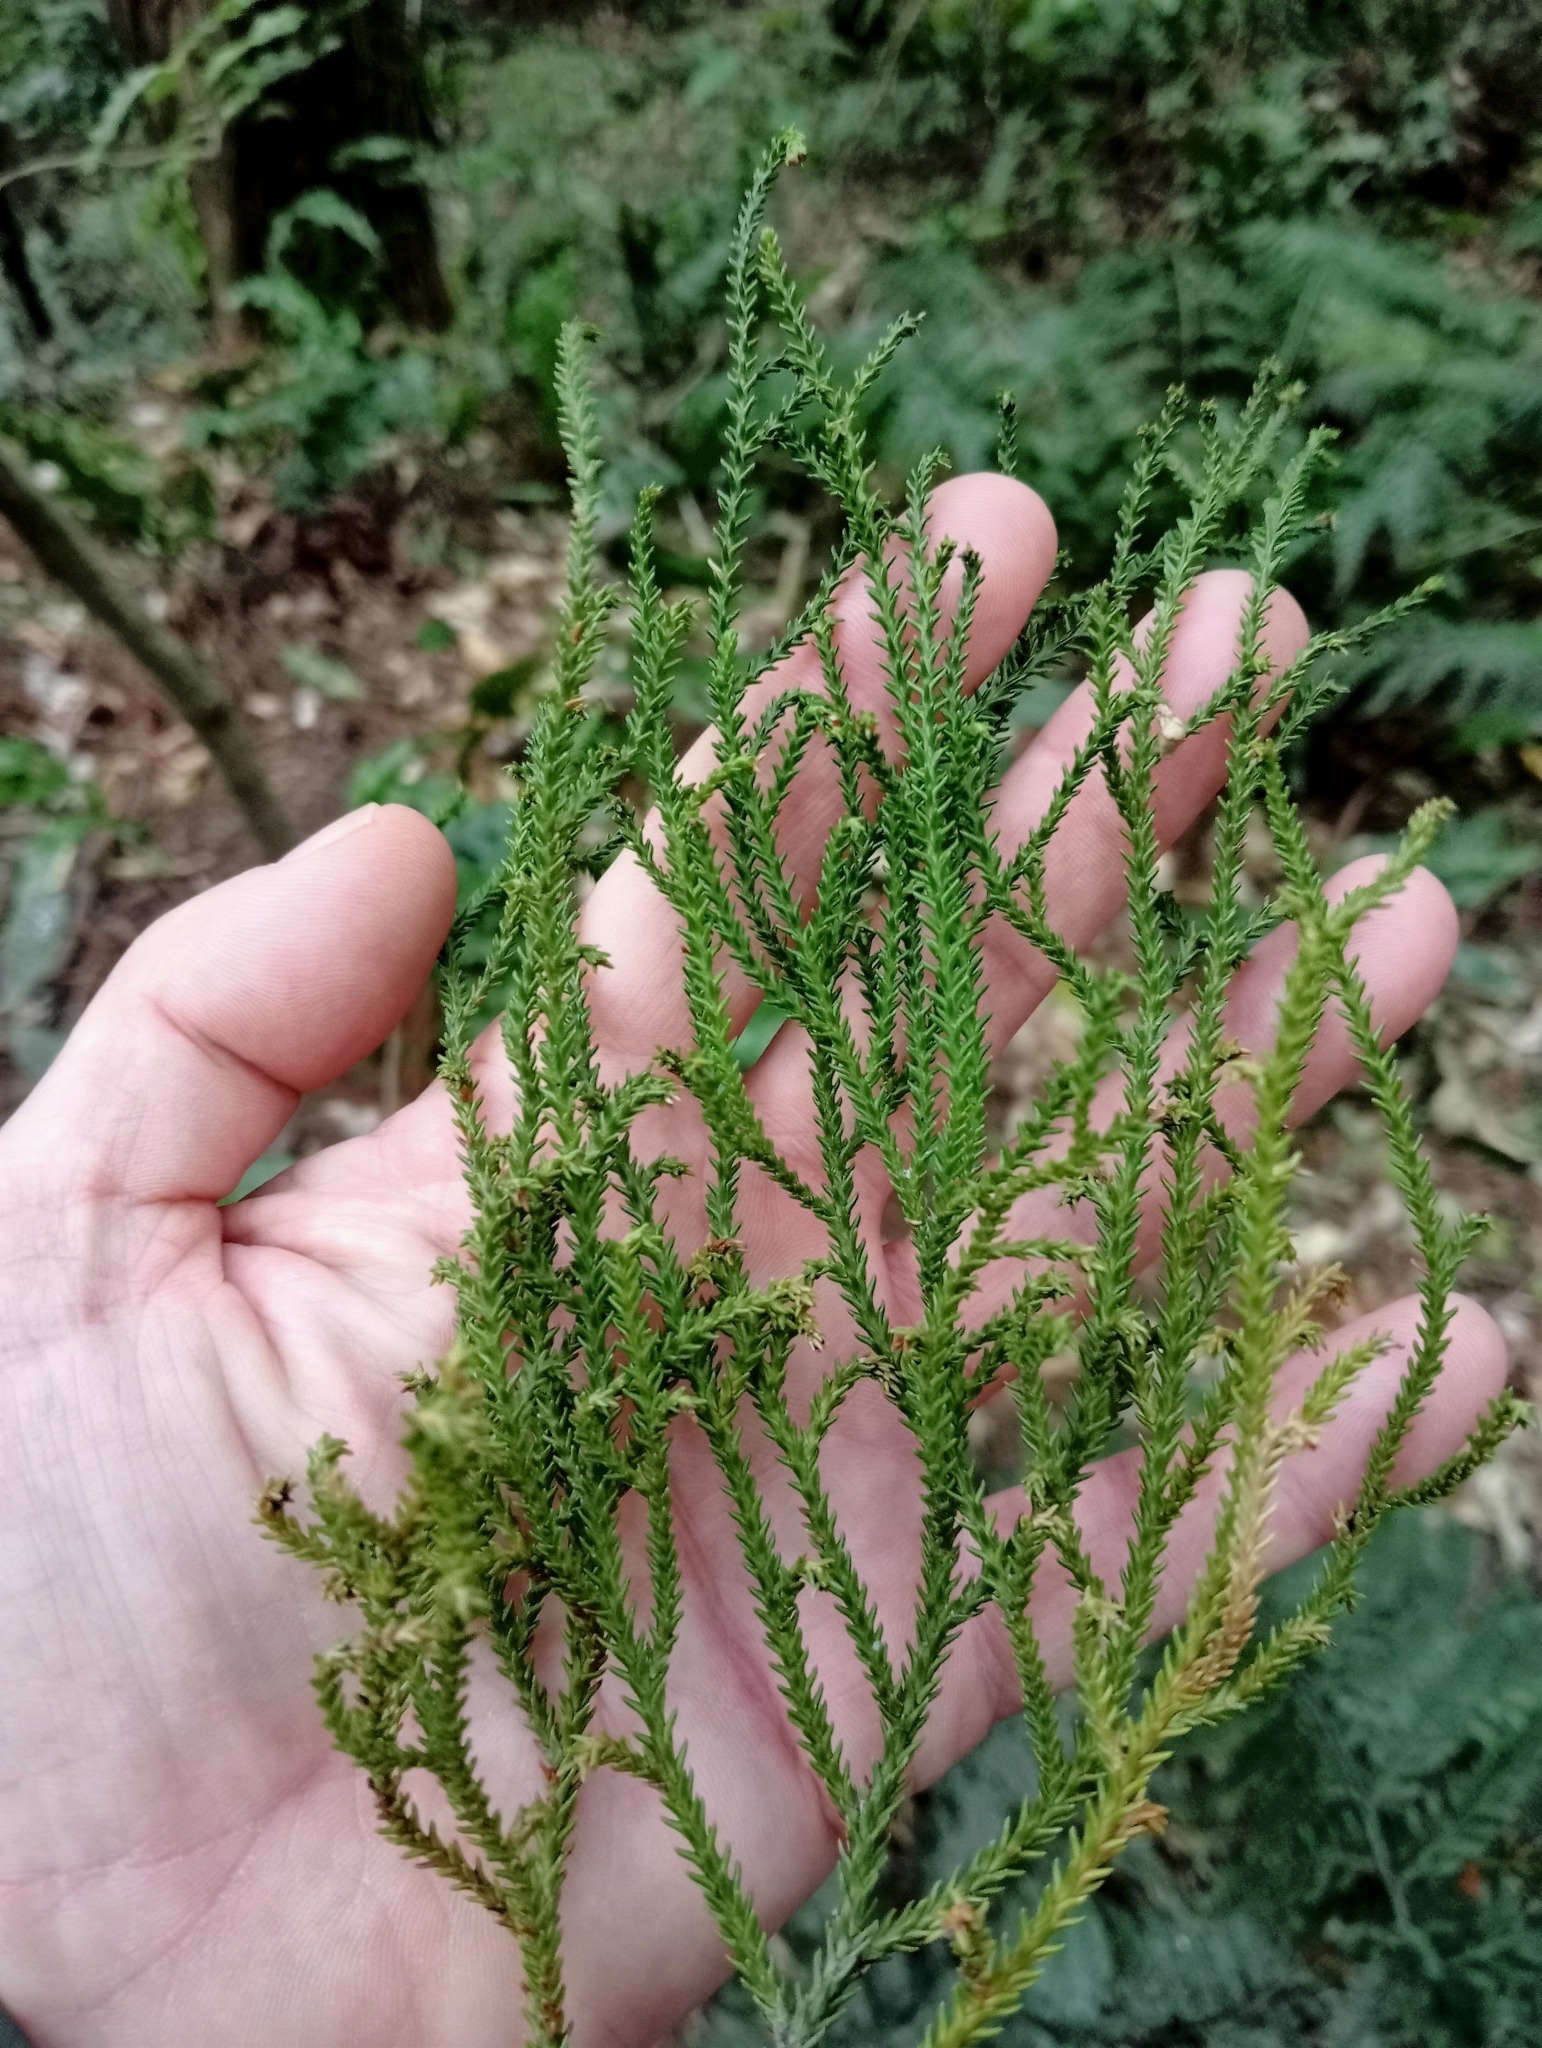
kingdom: Plantae
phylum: Tracheophyta
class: Pinopsida
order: Pinales
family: Podocarpaceae
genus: Dacrydium
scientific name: Dacrydium cupressinum
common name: Red pine
